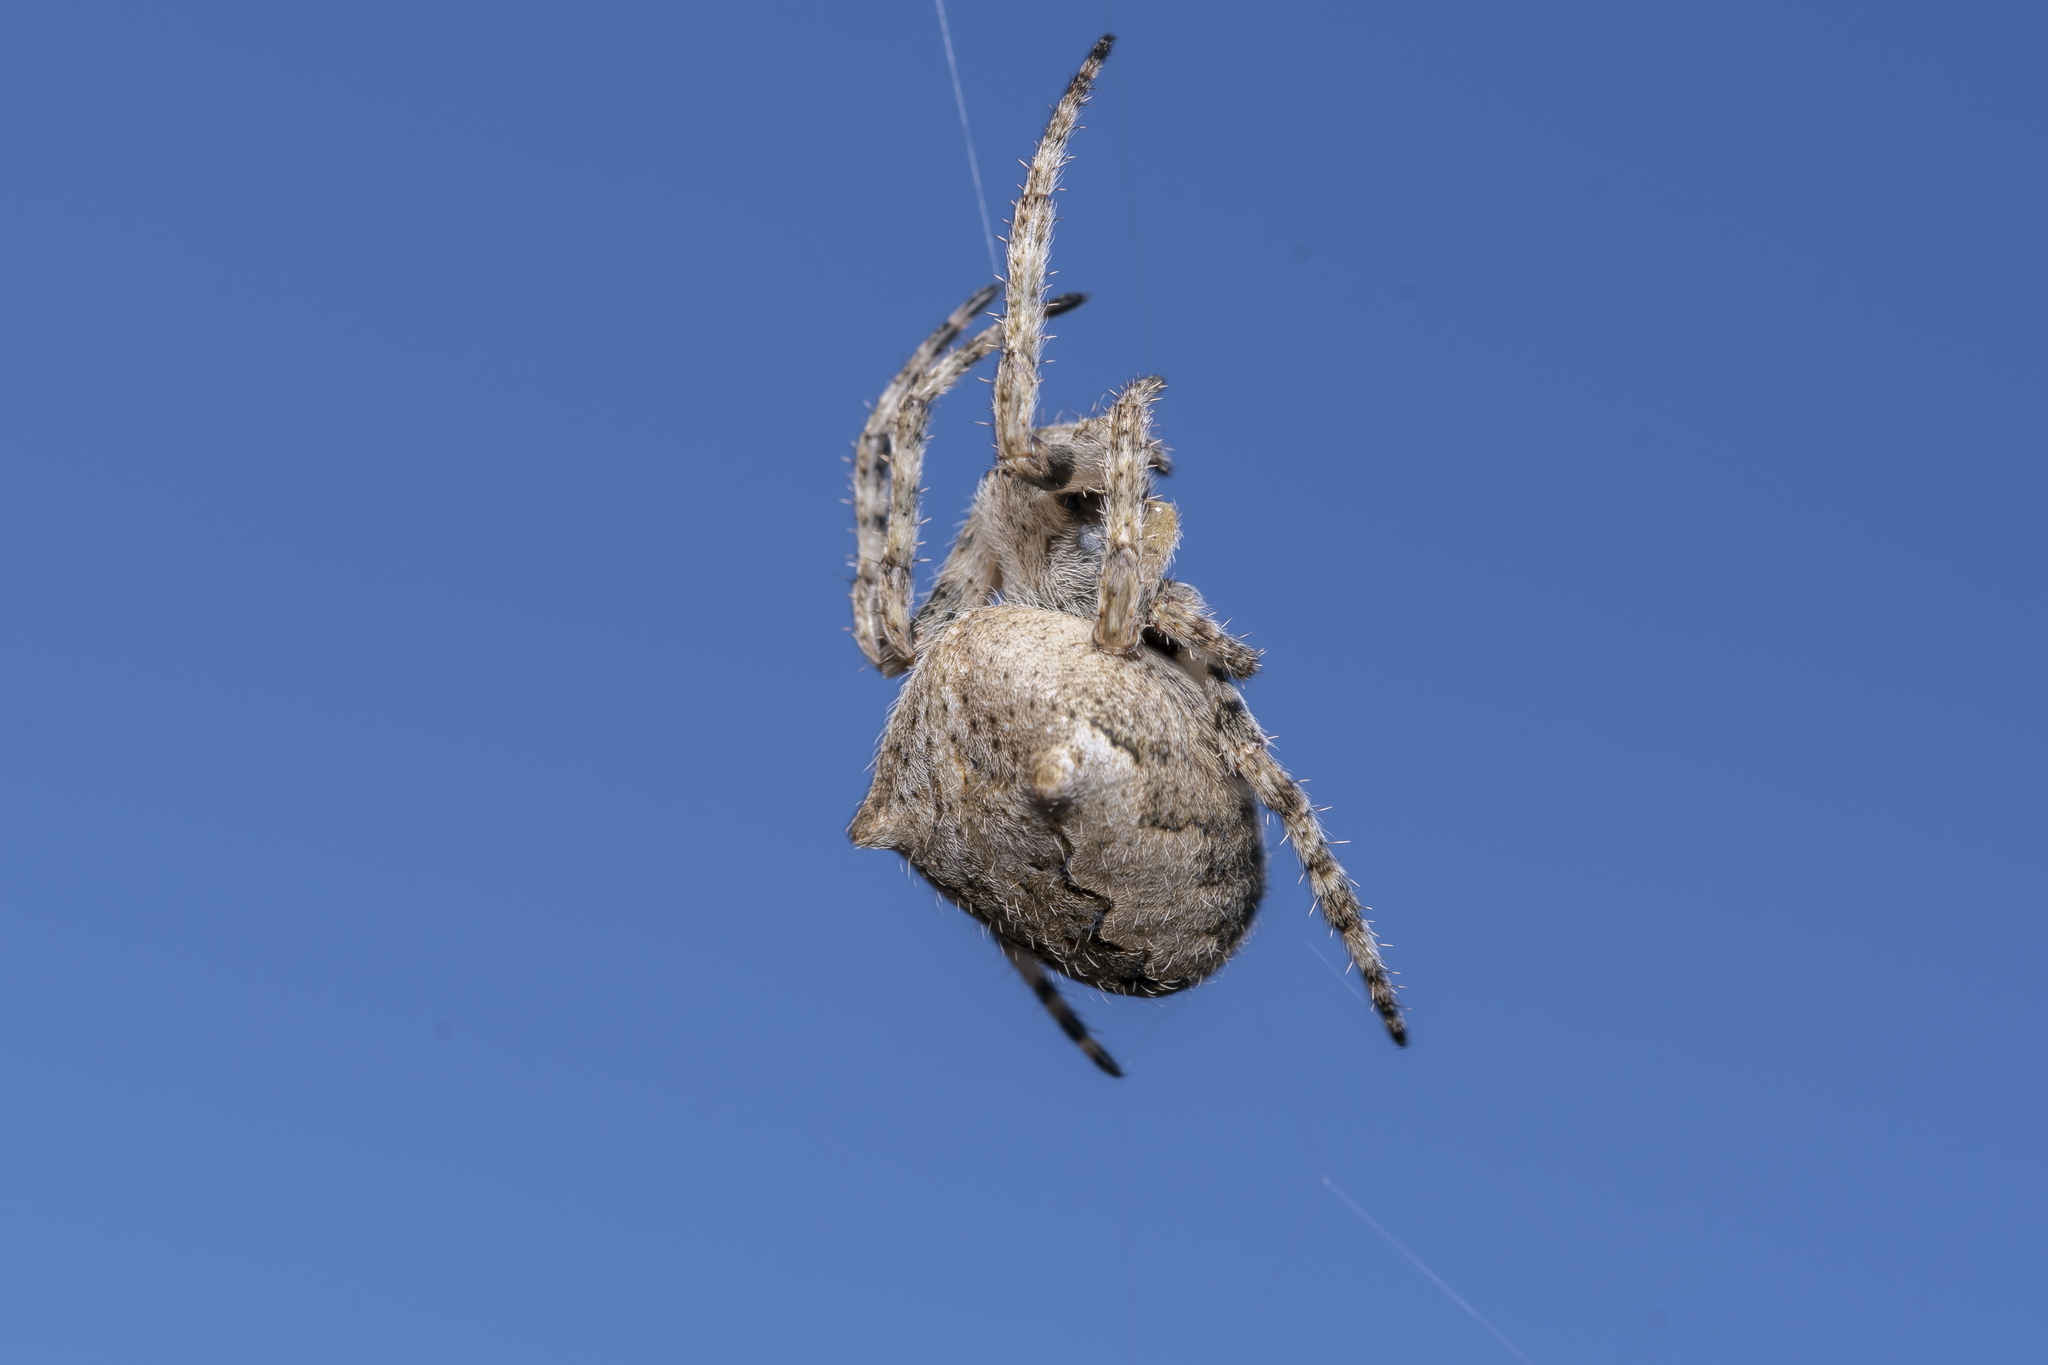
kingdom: Animalia
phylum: Arthropoda
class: Arachnida
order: Araneae
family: Araneidae
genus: Araneus
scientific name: Araneus
